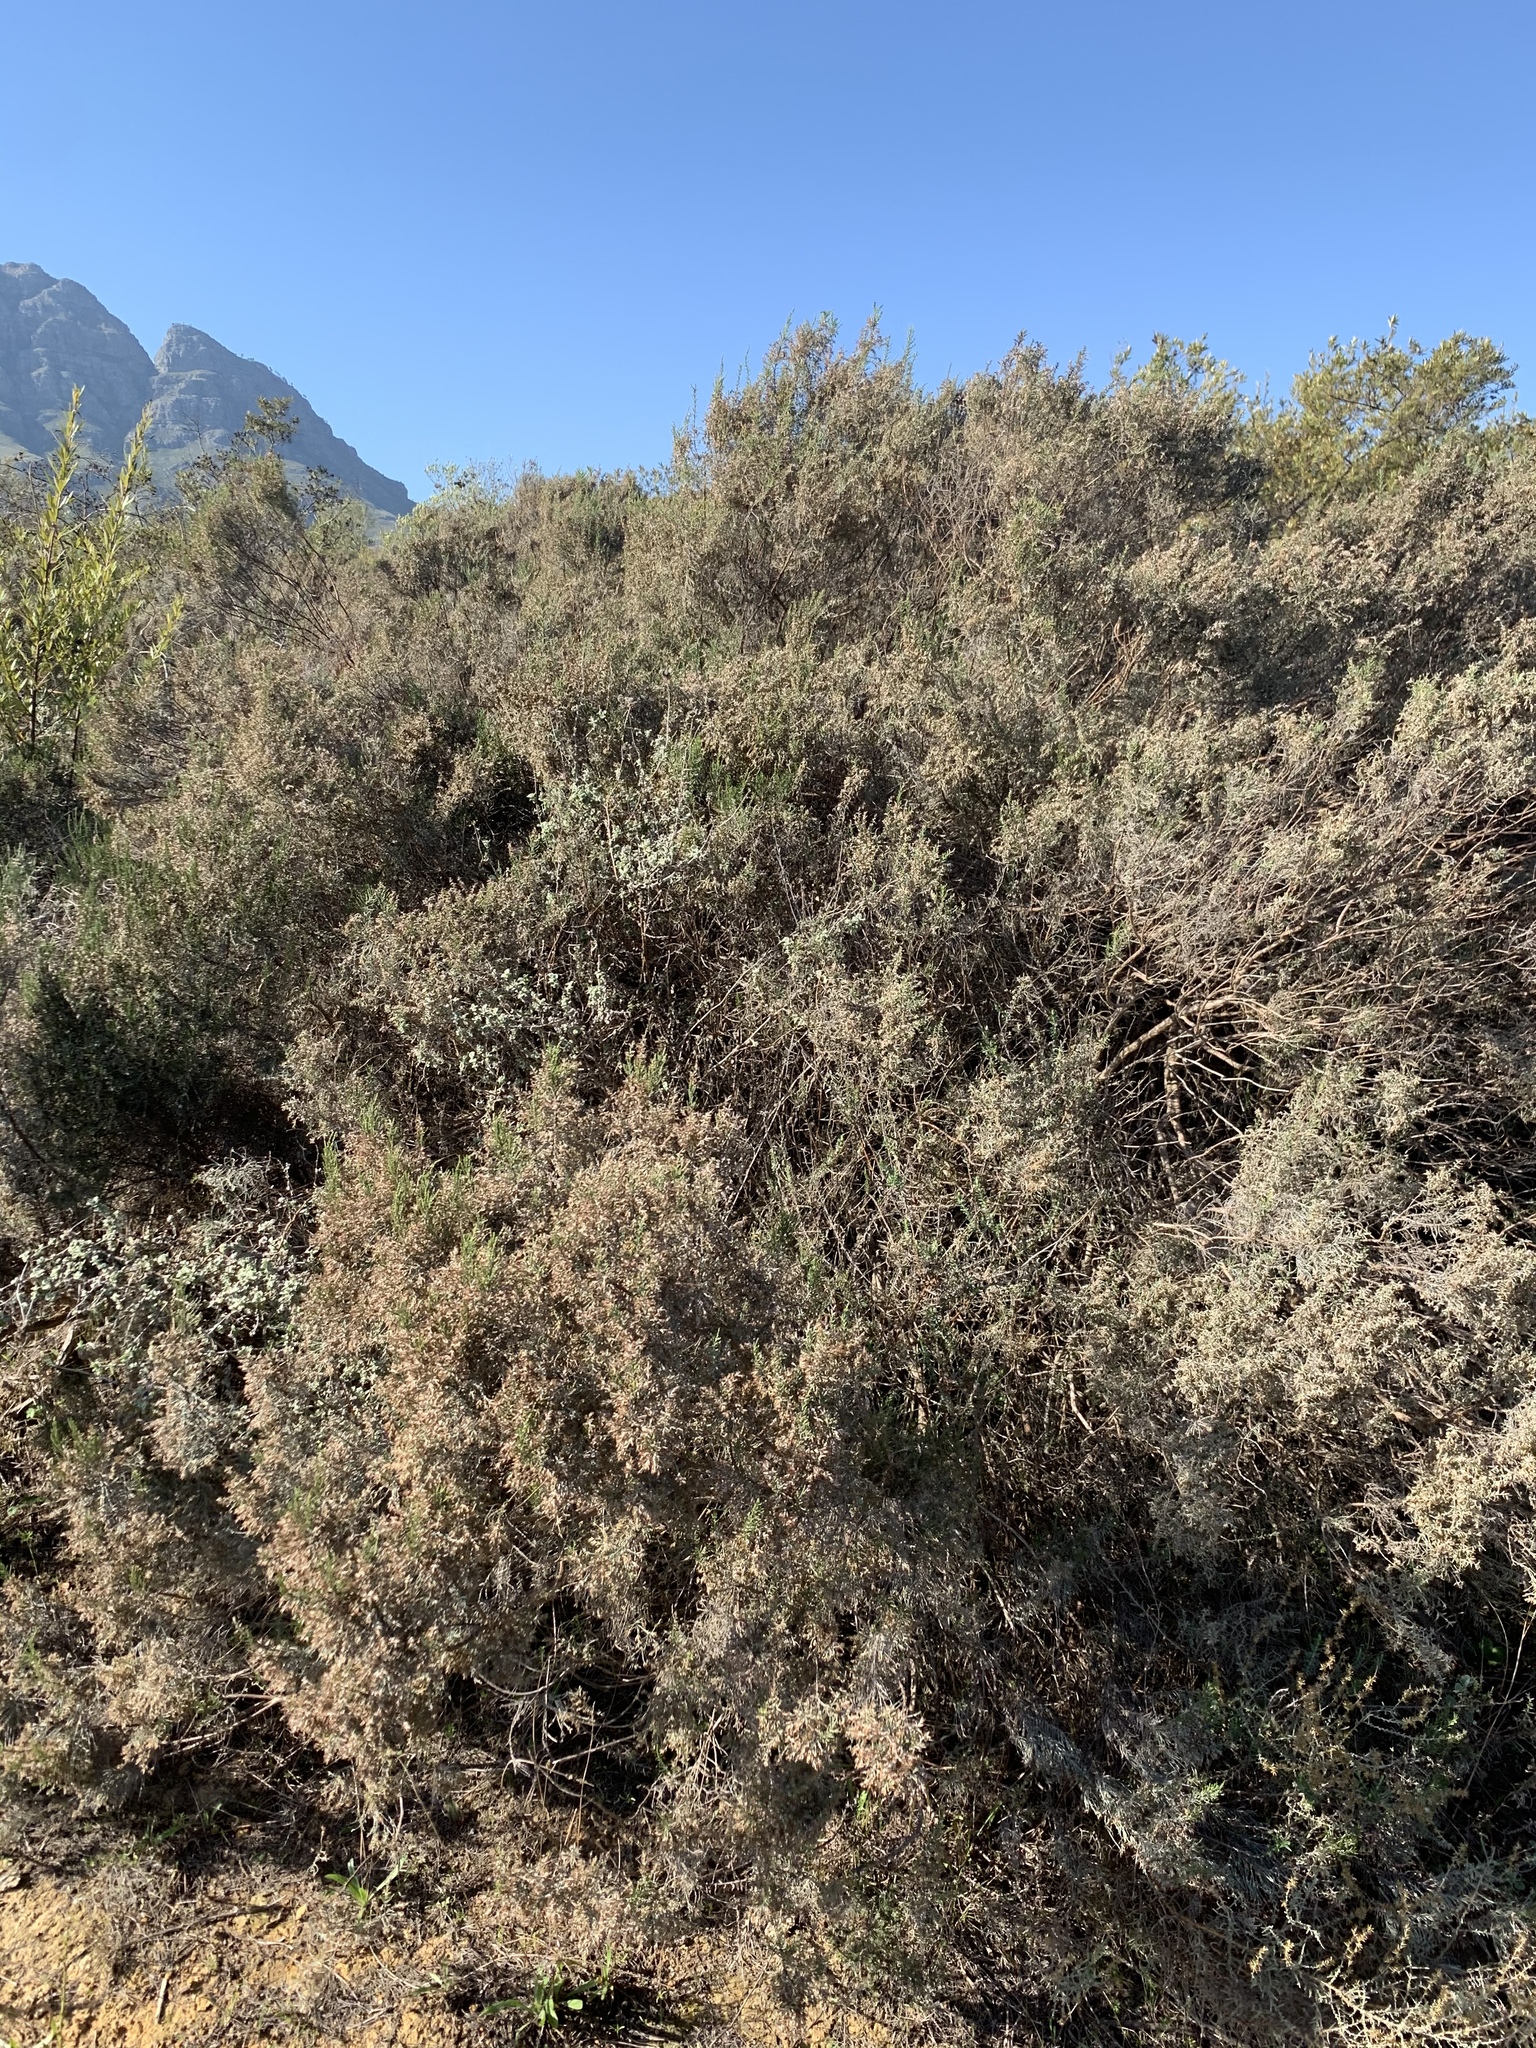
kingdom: Plantae
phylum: Tracheophyta
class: Magnoliopsida
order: Asterales
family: Asteraceae
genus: Dicerothamnus
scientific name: Dicerothamnus rhinocerotis
